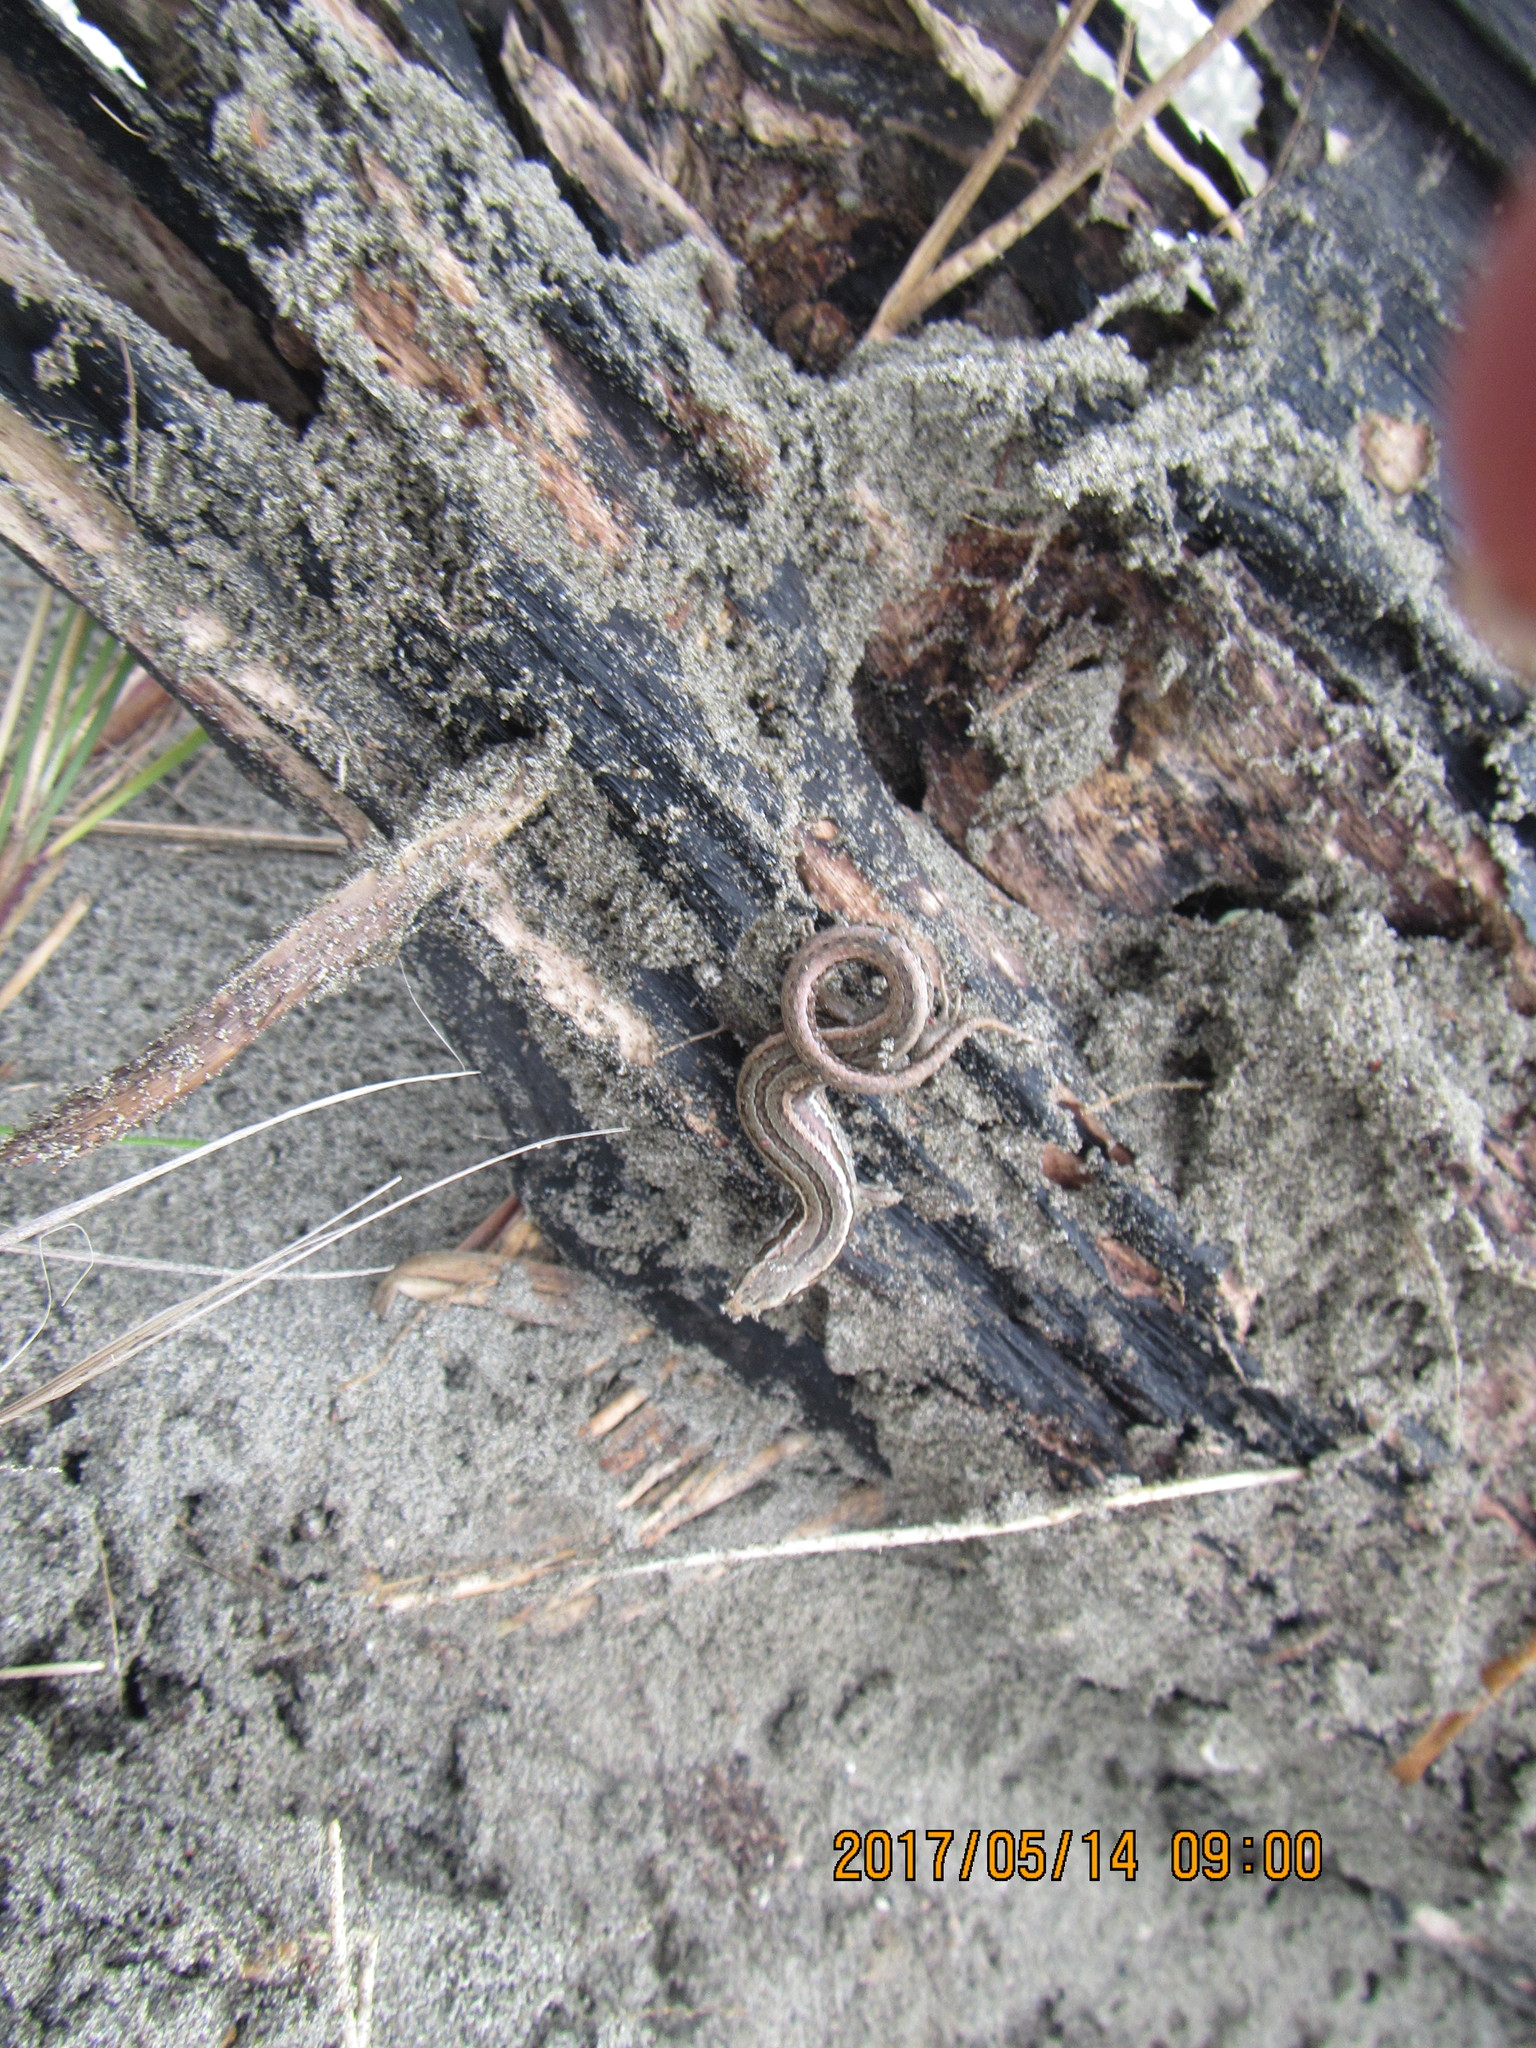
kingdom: Animalia
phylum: Chordata
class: Squamata
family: Scincidae
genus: Oligosoma
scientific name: Oligosoma polychroma
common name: Common new zealand skink
